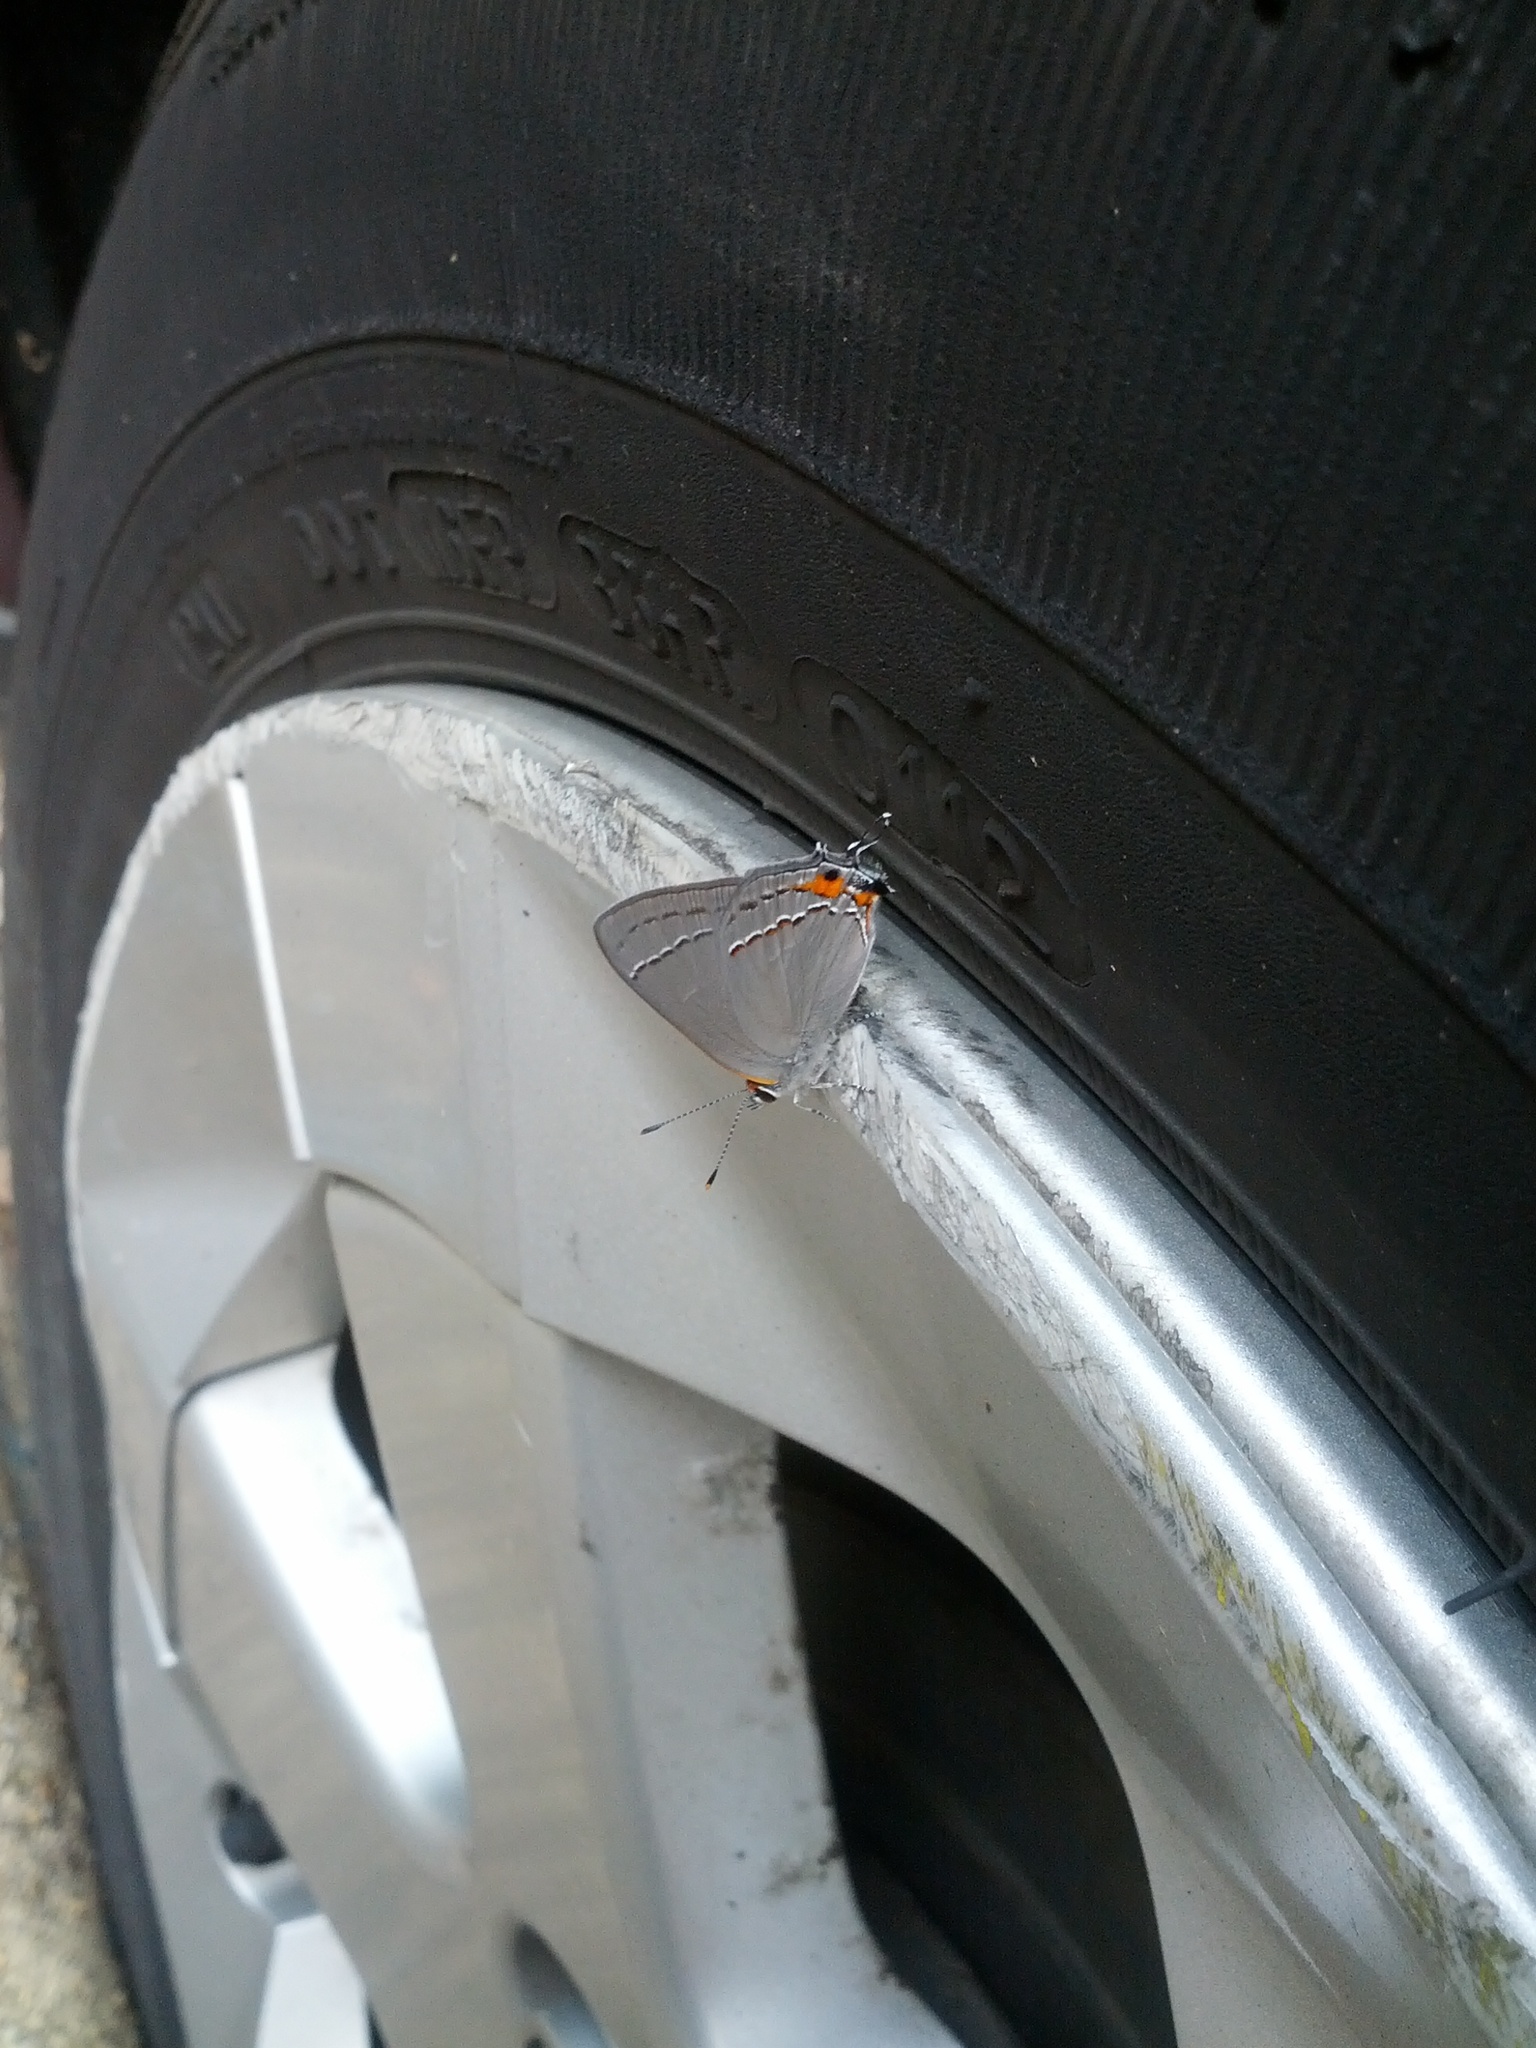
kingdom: Animalia
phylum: Arthropoda
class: Insecta
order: Lepidoptera
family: Lycaenidae
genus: Strymon
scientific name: Strymon melinus
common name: Gray hairstreak
